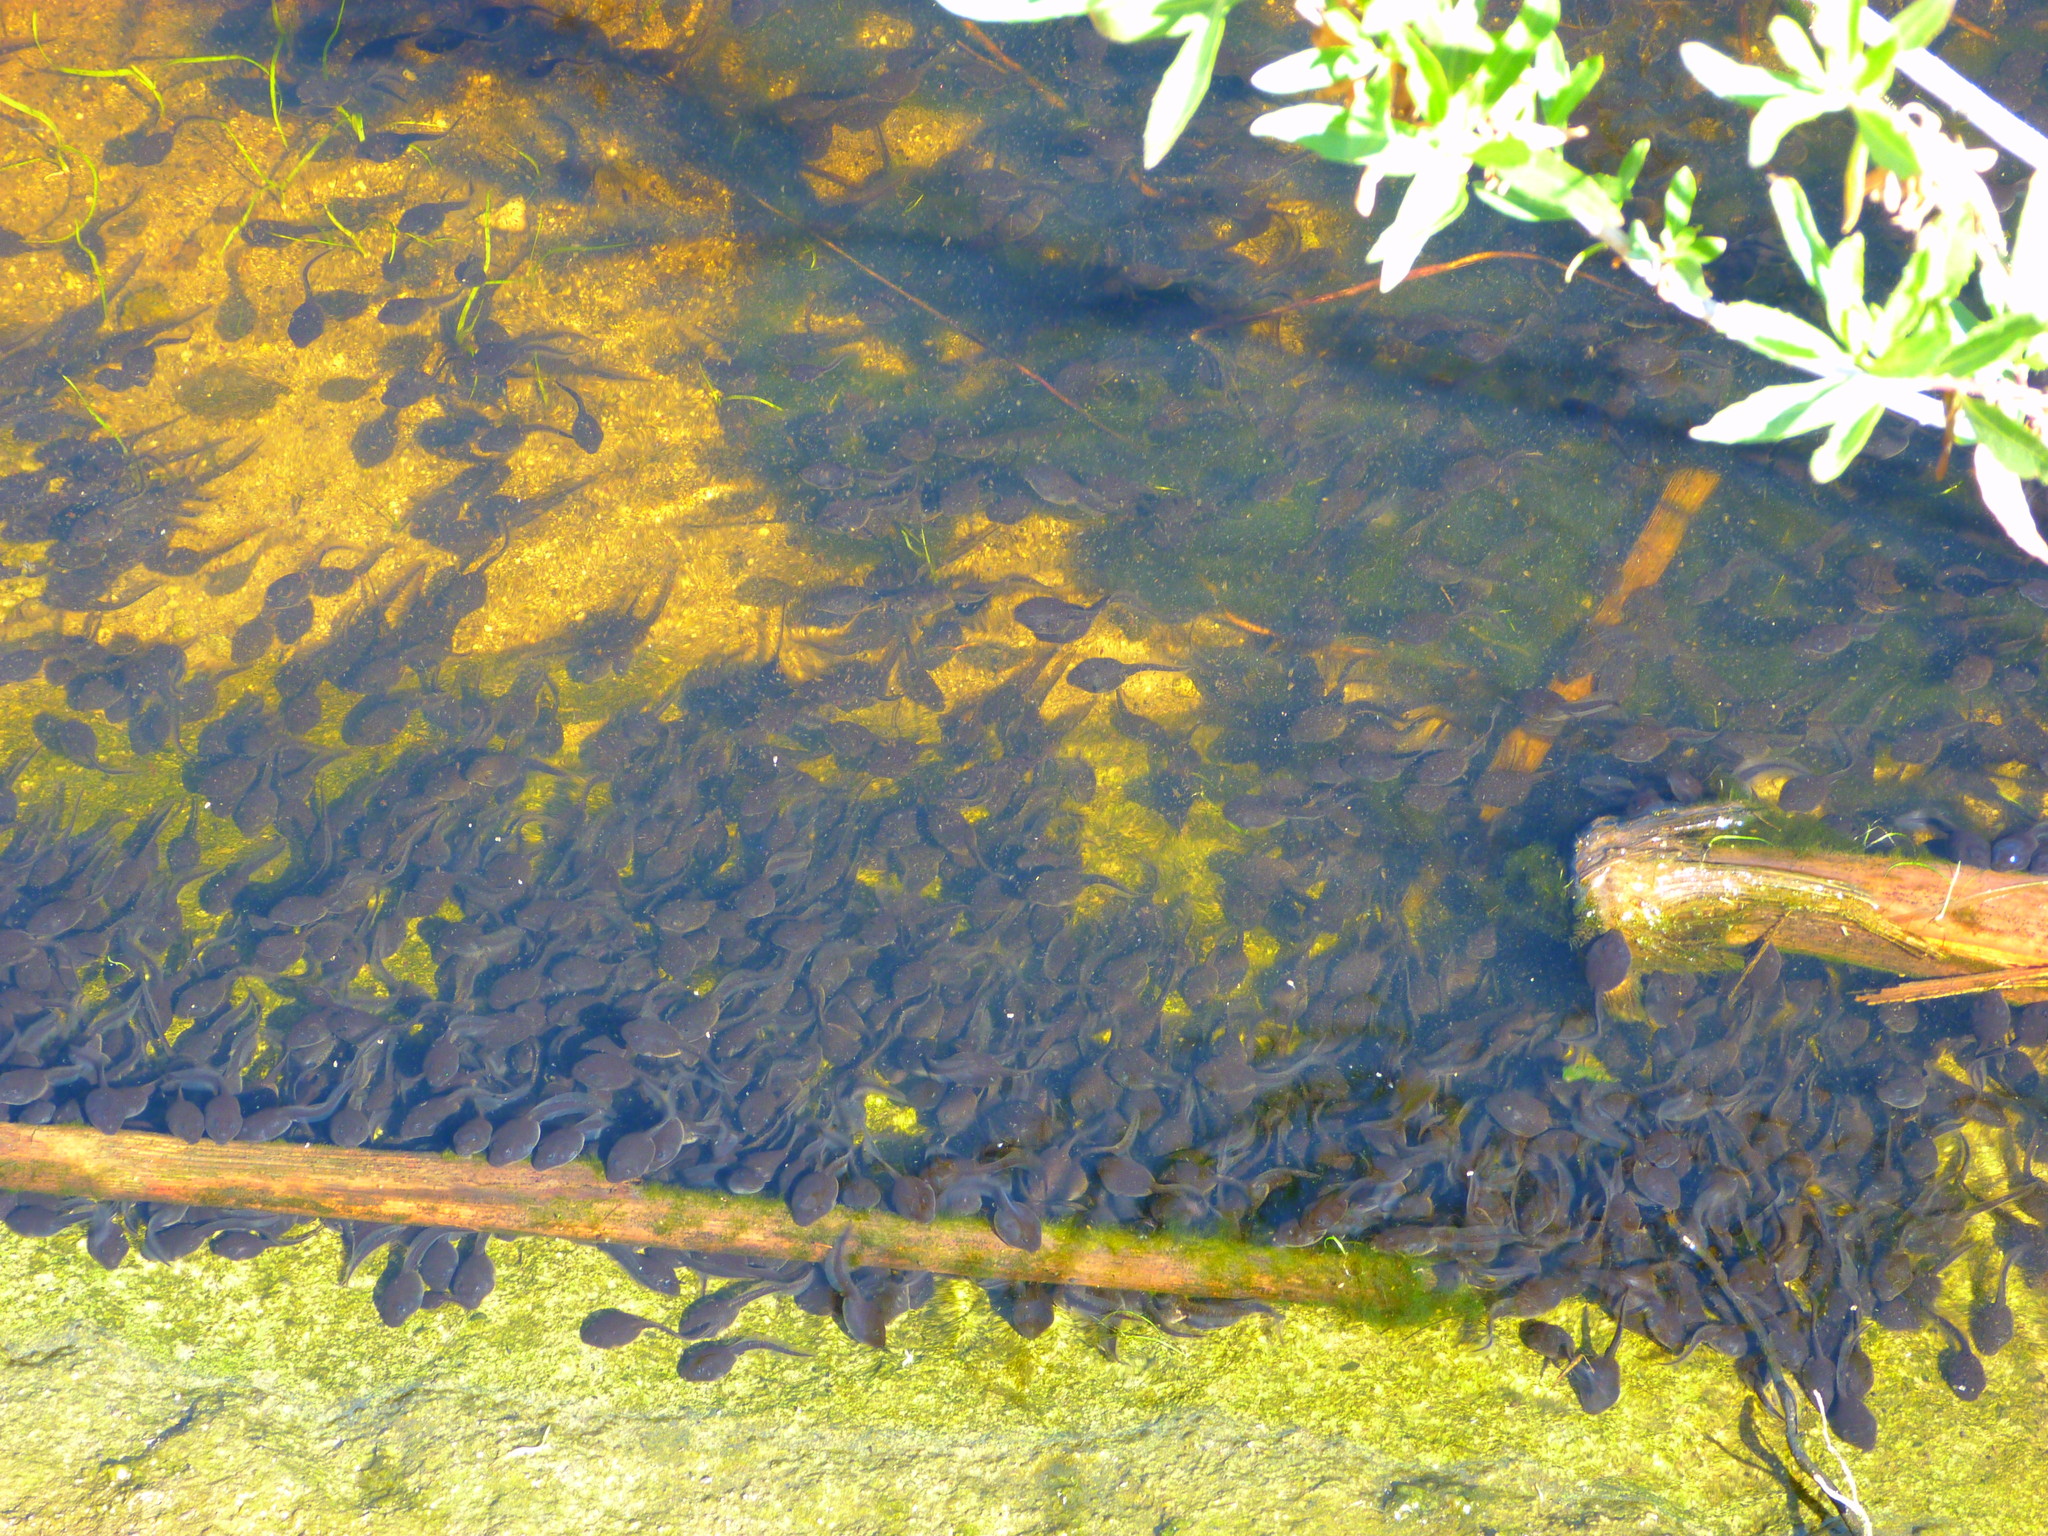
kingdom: Animalia
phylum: Chordata
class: Amphibia
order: Anura
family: Bufonidae
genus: Anaxyrus
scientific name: Anaxyrus boreas
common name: Western toad
